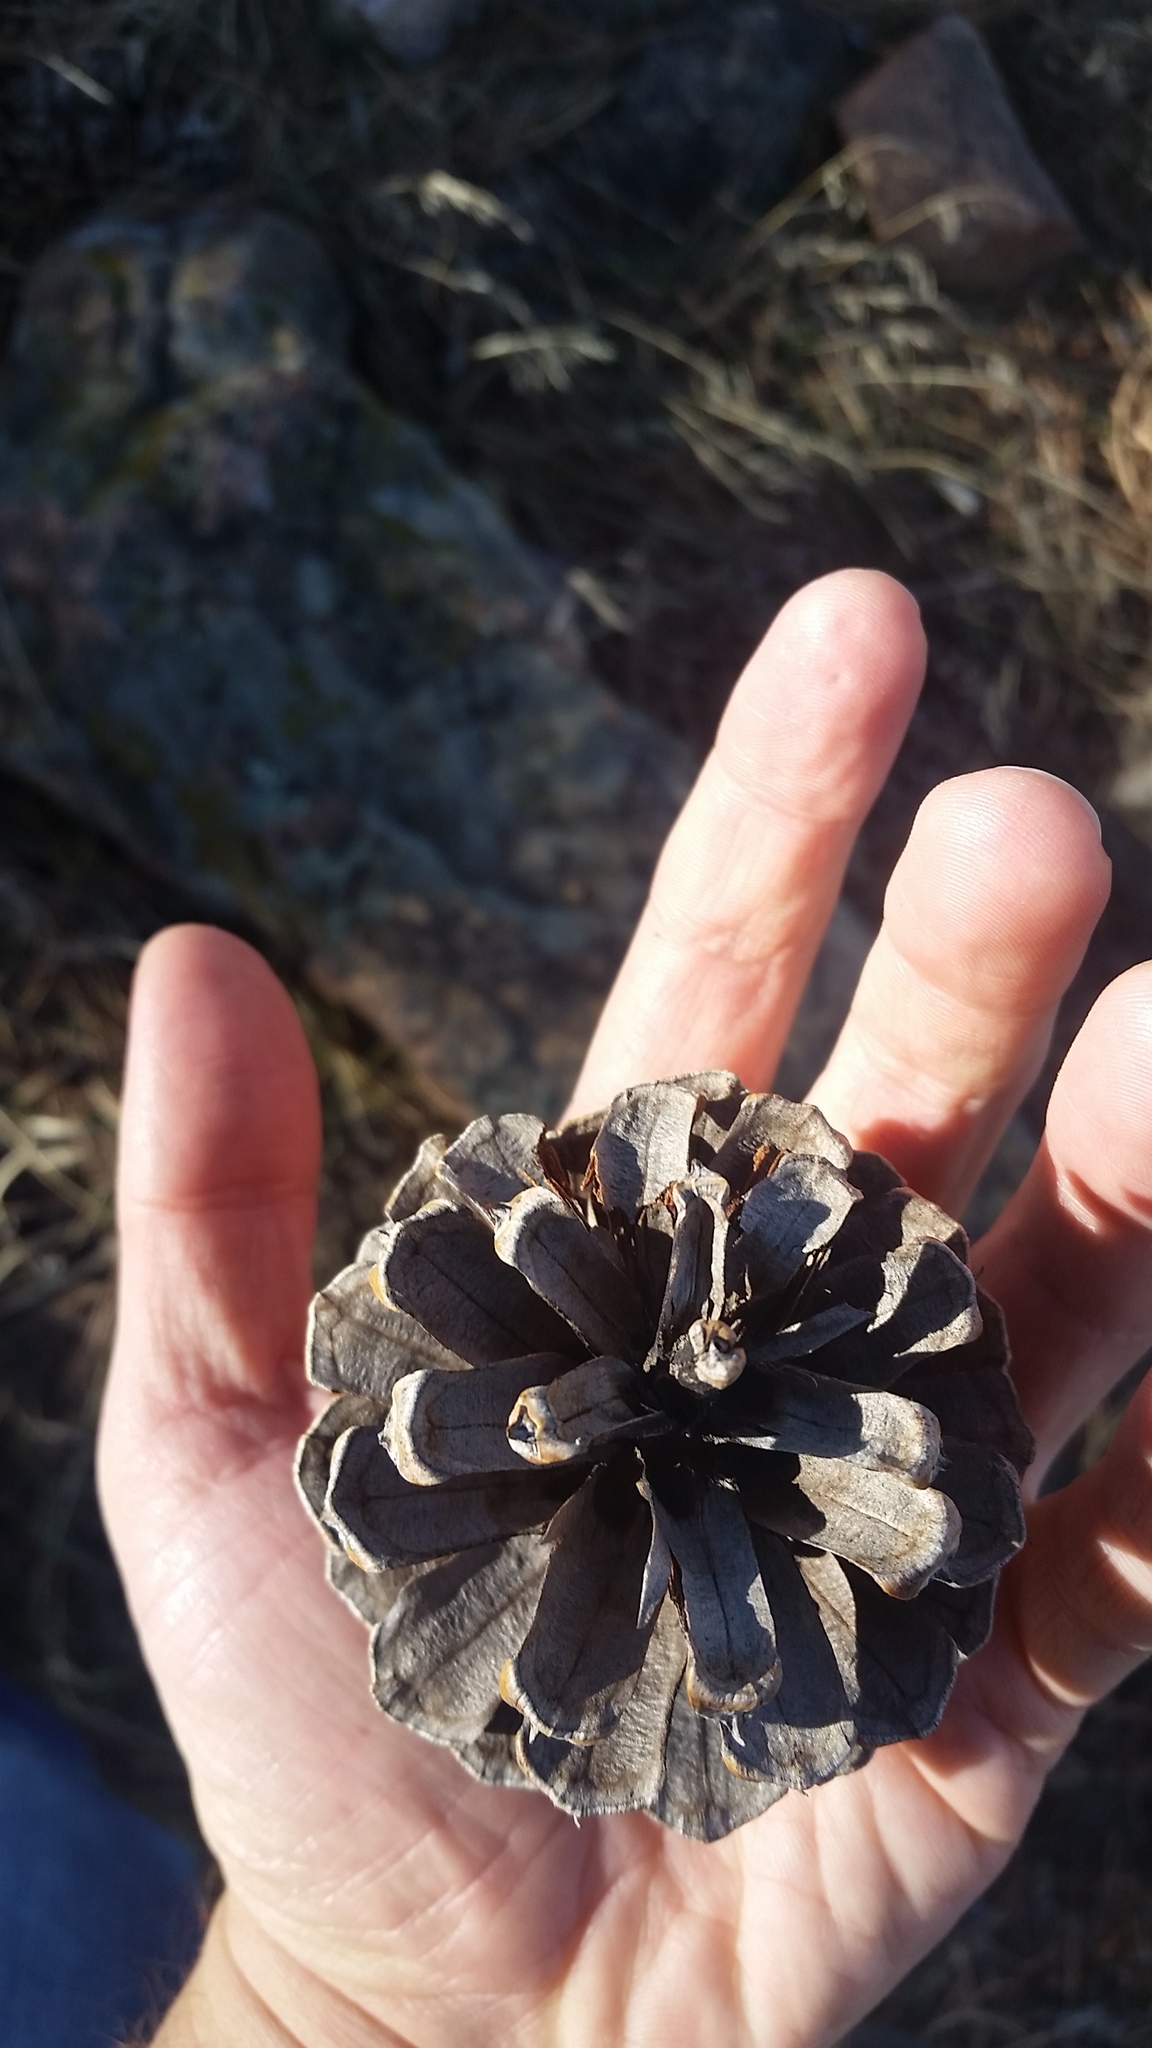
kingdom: Plantae
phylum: Tracheophyta
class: Pinopsida
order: Pinales
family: Pinaceae
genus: Pinus
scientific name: Pinus ponderosa
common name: Western yellow-pine
